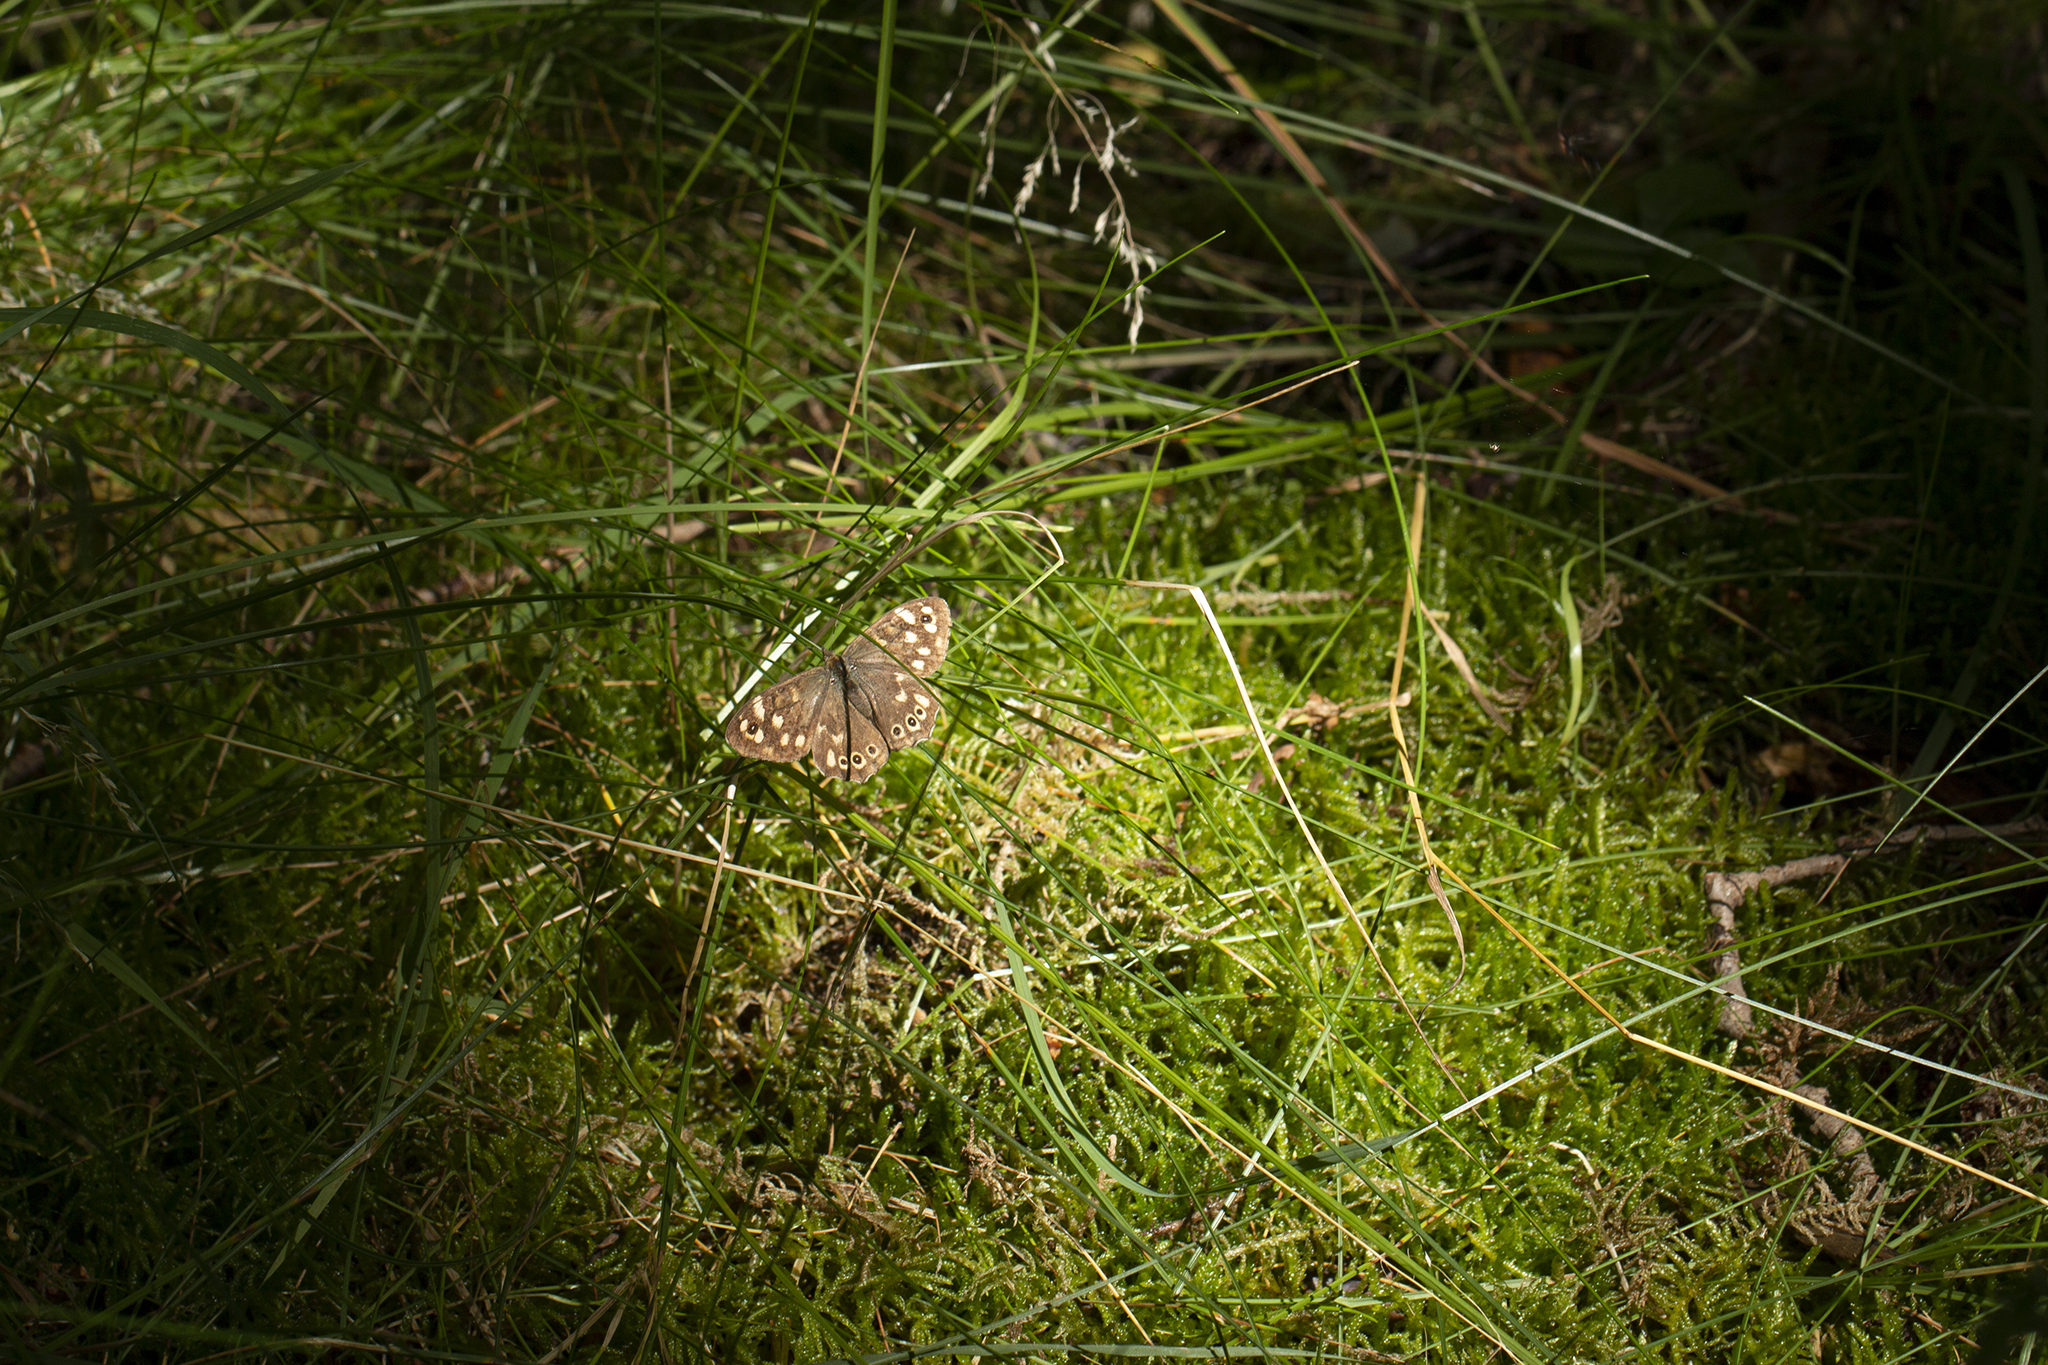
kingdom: Animalia
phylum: Arthropoda
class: Insecta
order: Lepidoptera
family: Nymphalidae
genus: Pararge
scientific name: Pararge aegeria
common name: Speckled wood
